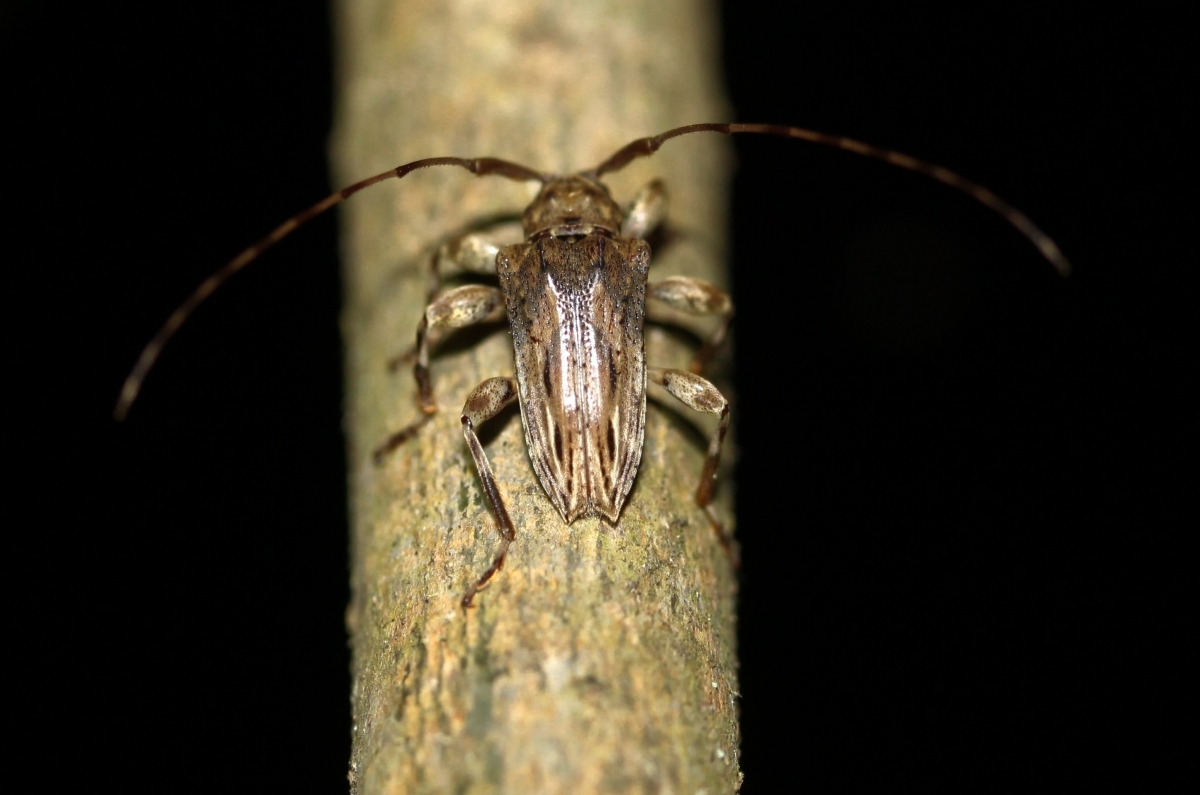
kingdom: Animalia
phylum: Arthropoda
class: Insecta
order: Coleoptera
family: Cerambycidae
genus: Nealcidion
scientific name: Nealcidion strigilis
